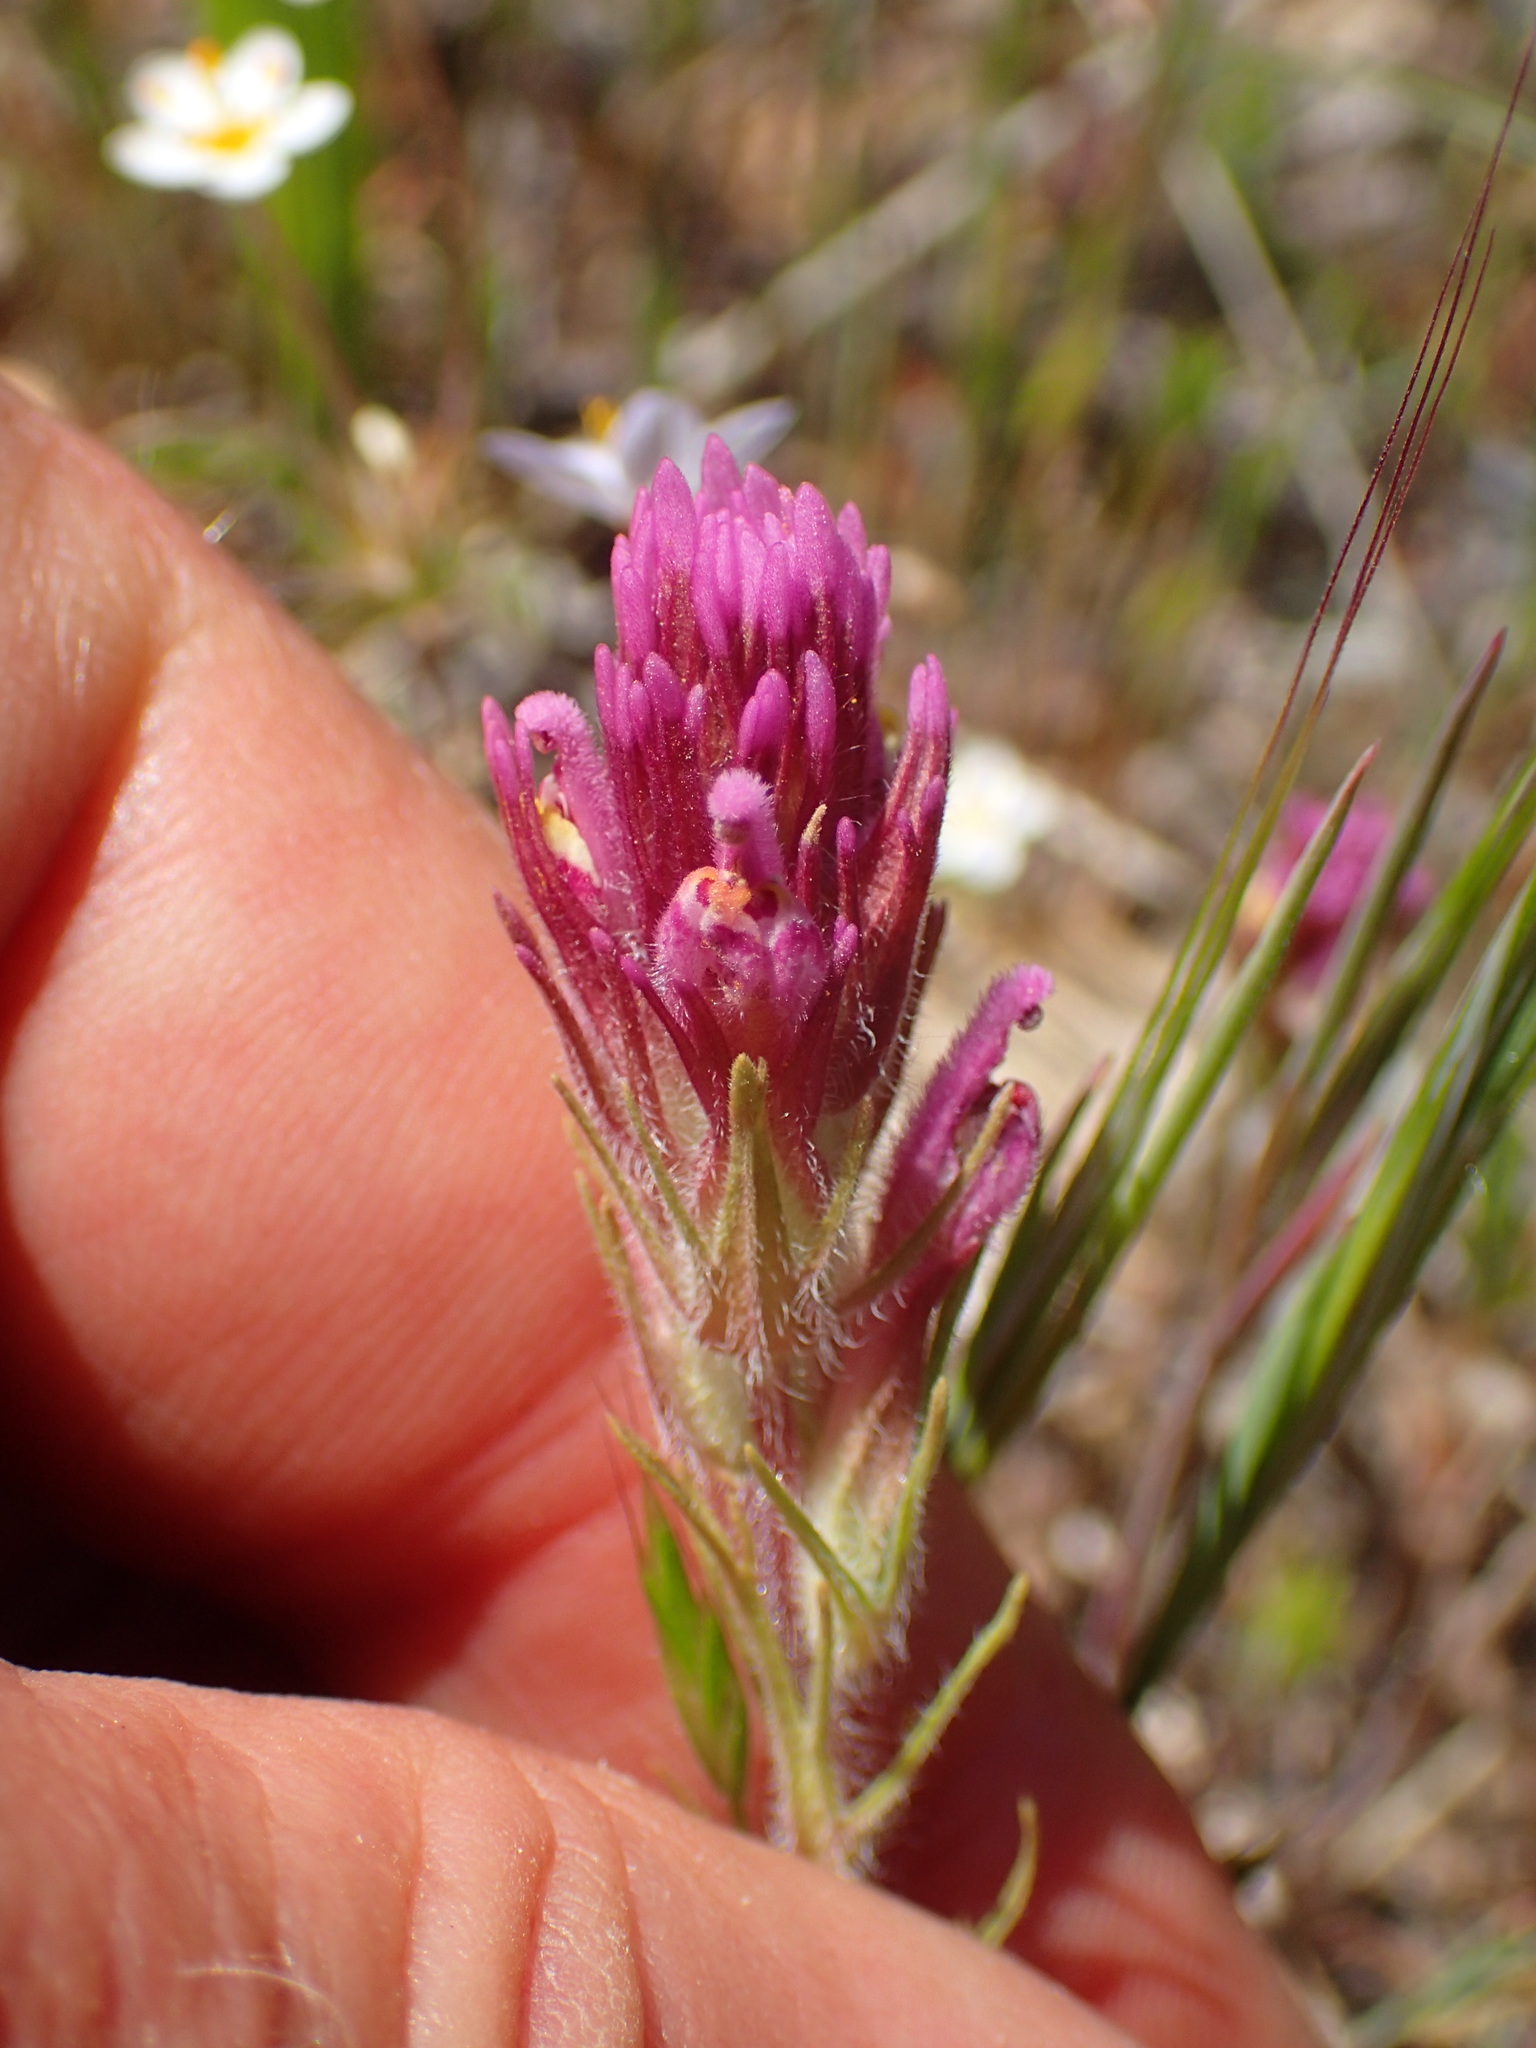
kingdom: Plantae
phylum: Tracheophyta
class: Magnoliopsida
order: Lamiales
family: Orobanchaceae
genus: Castilleja
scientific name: Castilleja exserta
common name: Purple owl-clover
